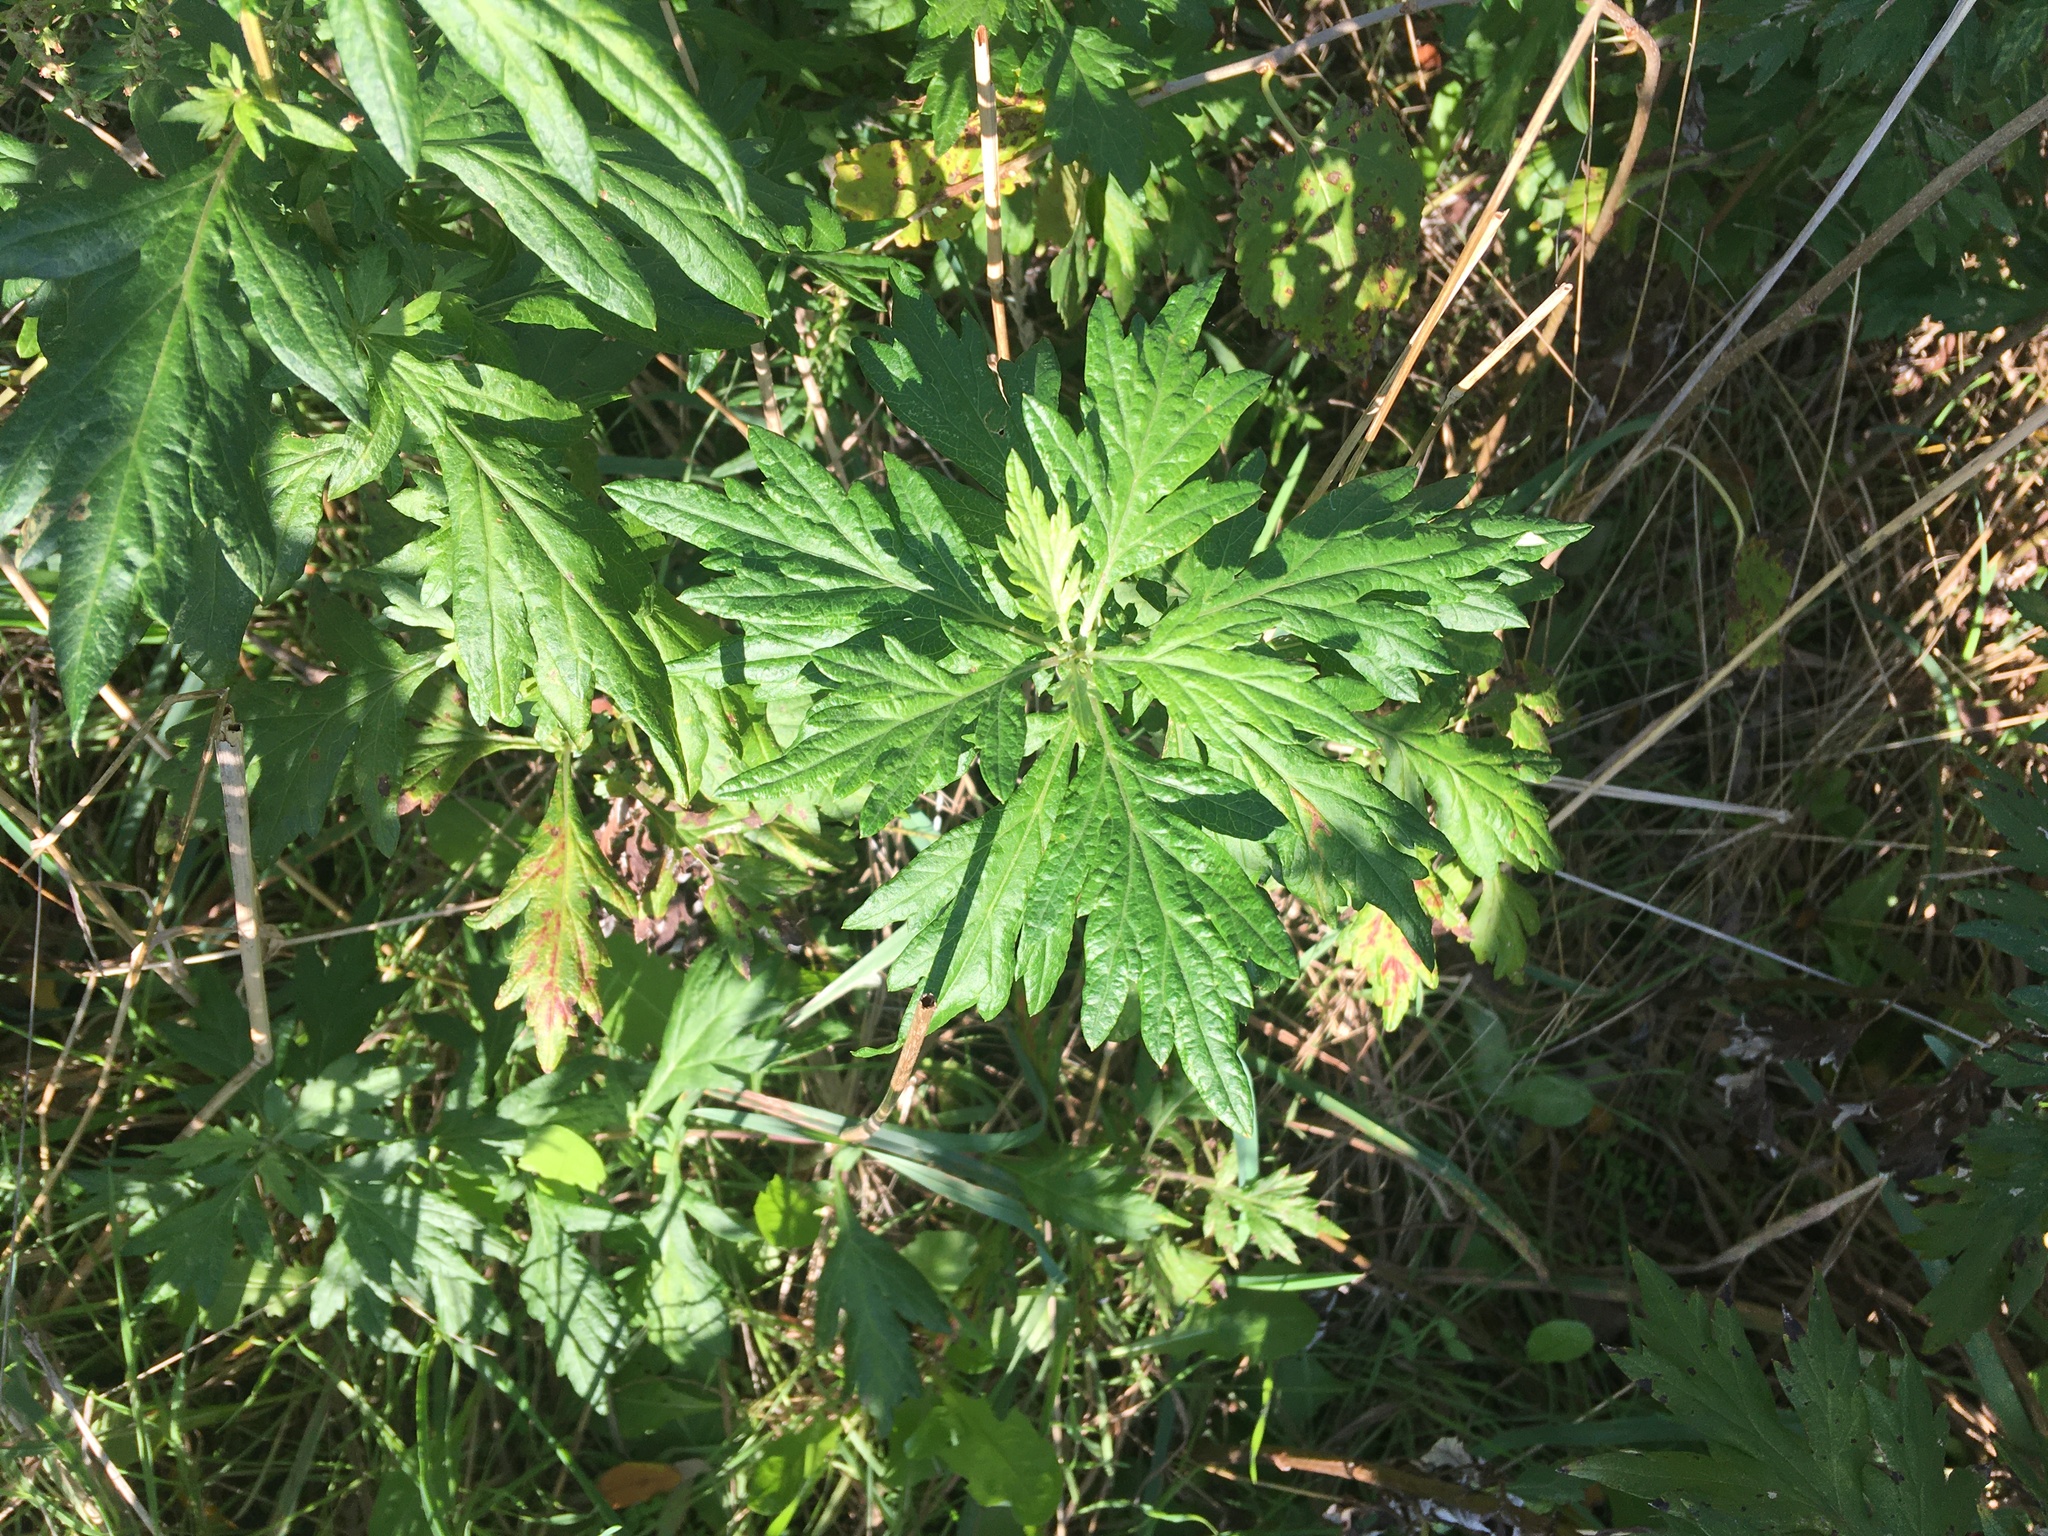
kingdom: Plantae
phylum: Tracheophyta
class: Magnoliopsida
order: Asterales
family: Asteraceae
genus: Artemisia
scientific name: Artemisia vulgaris
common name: Mugwort
